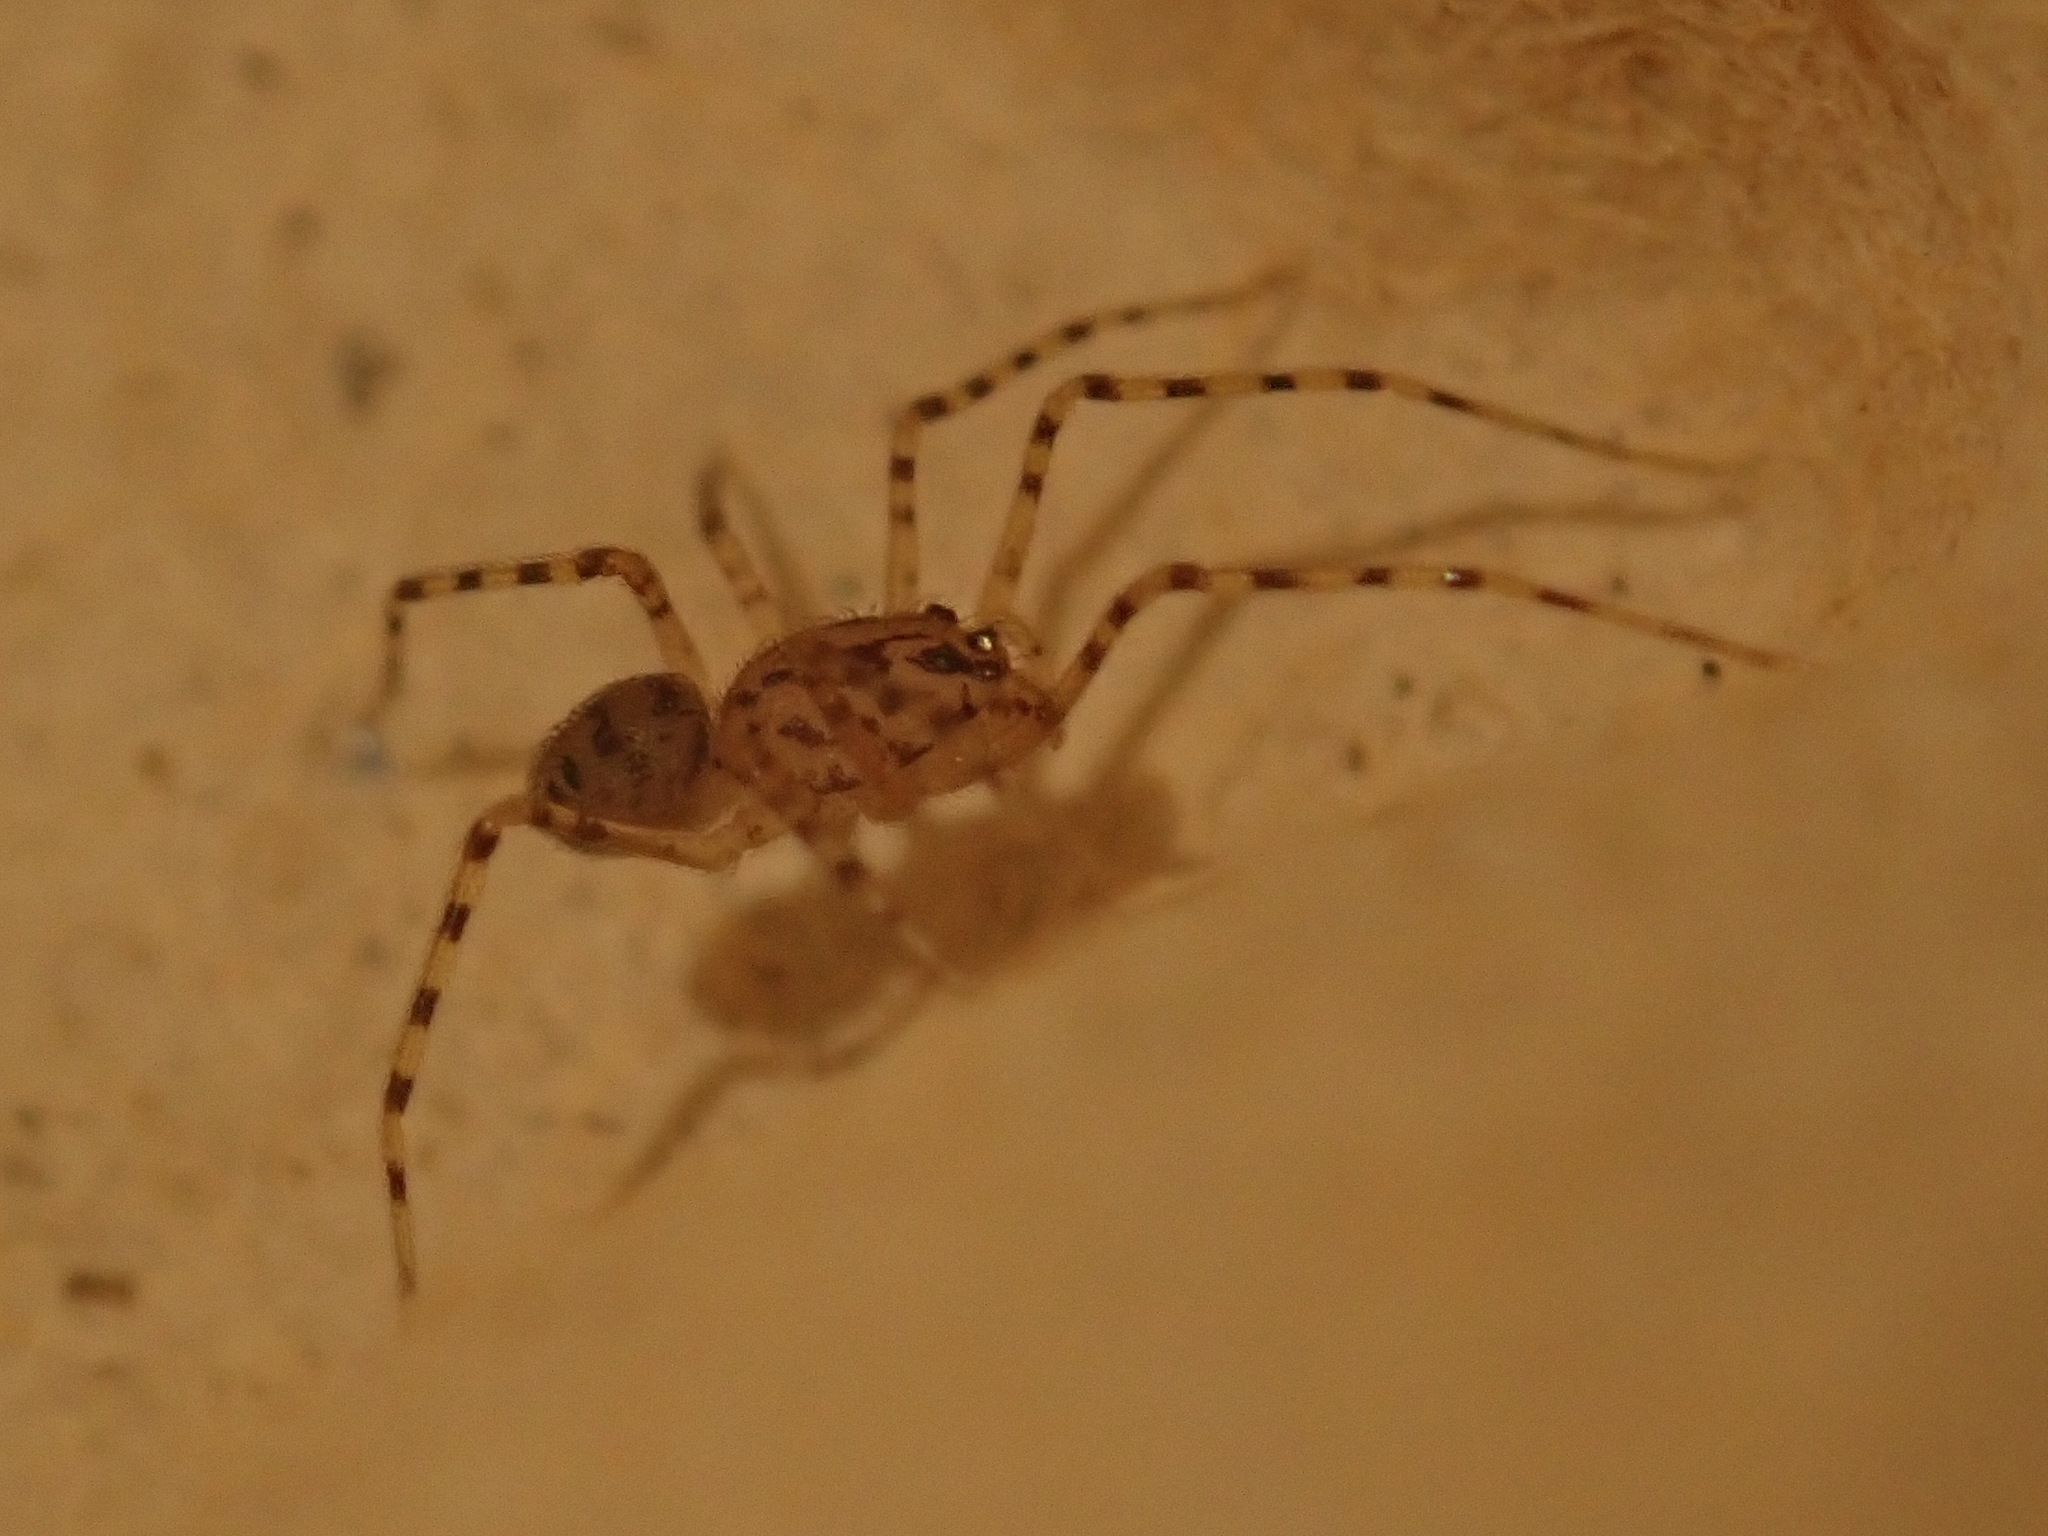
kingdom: Animalia
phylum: Arthropoda
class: Arachnida
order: Araneae
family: Scytodidae
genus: Scytodes
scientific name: Scytodes thoracica
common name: Spitting spider
